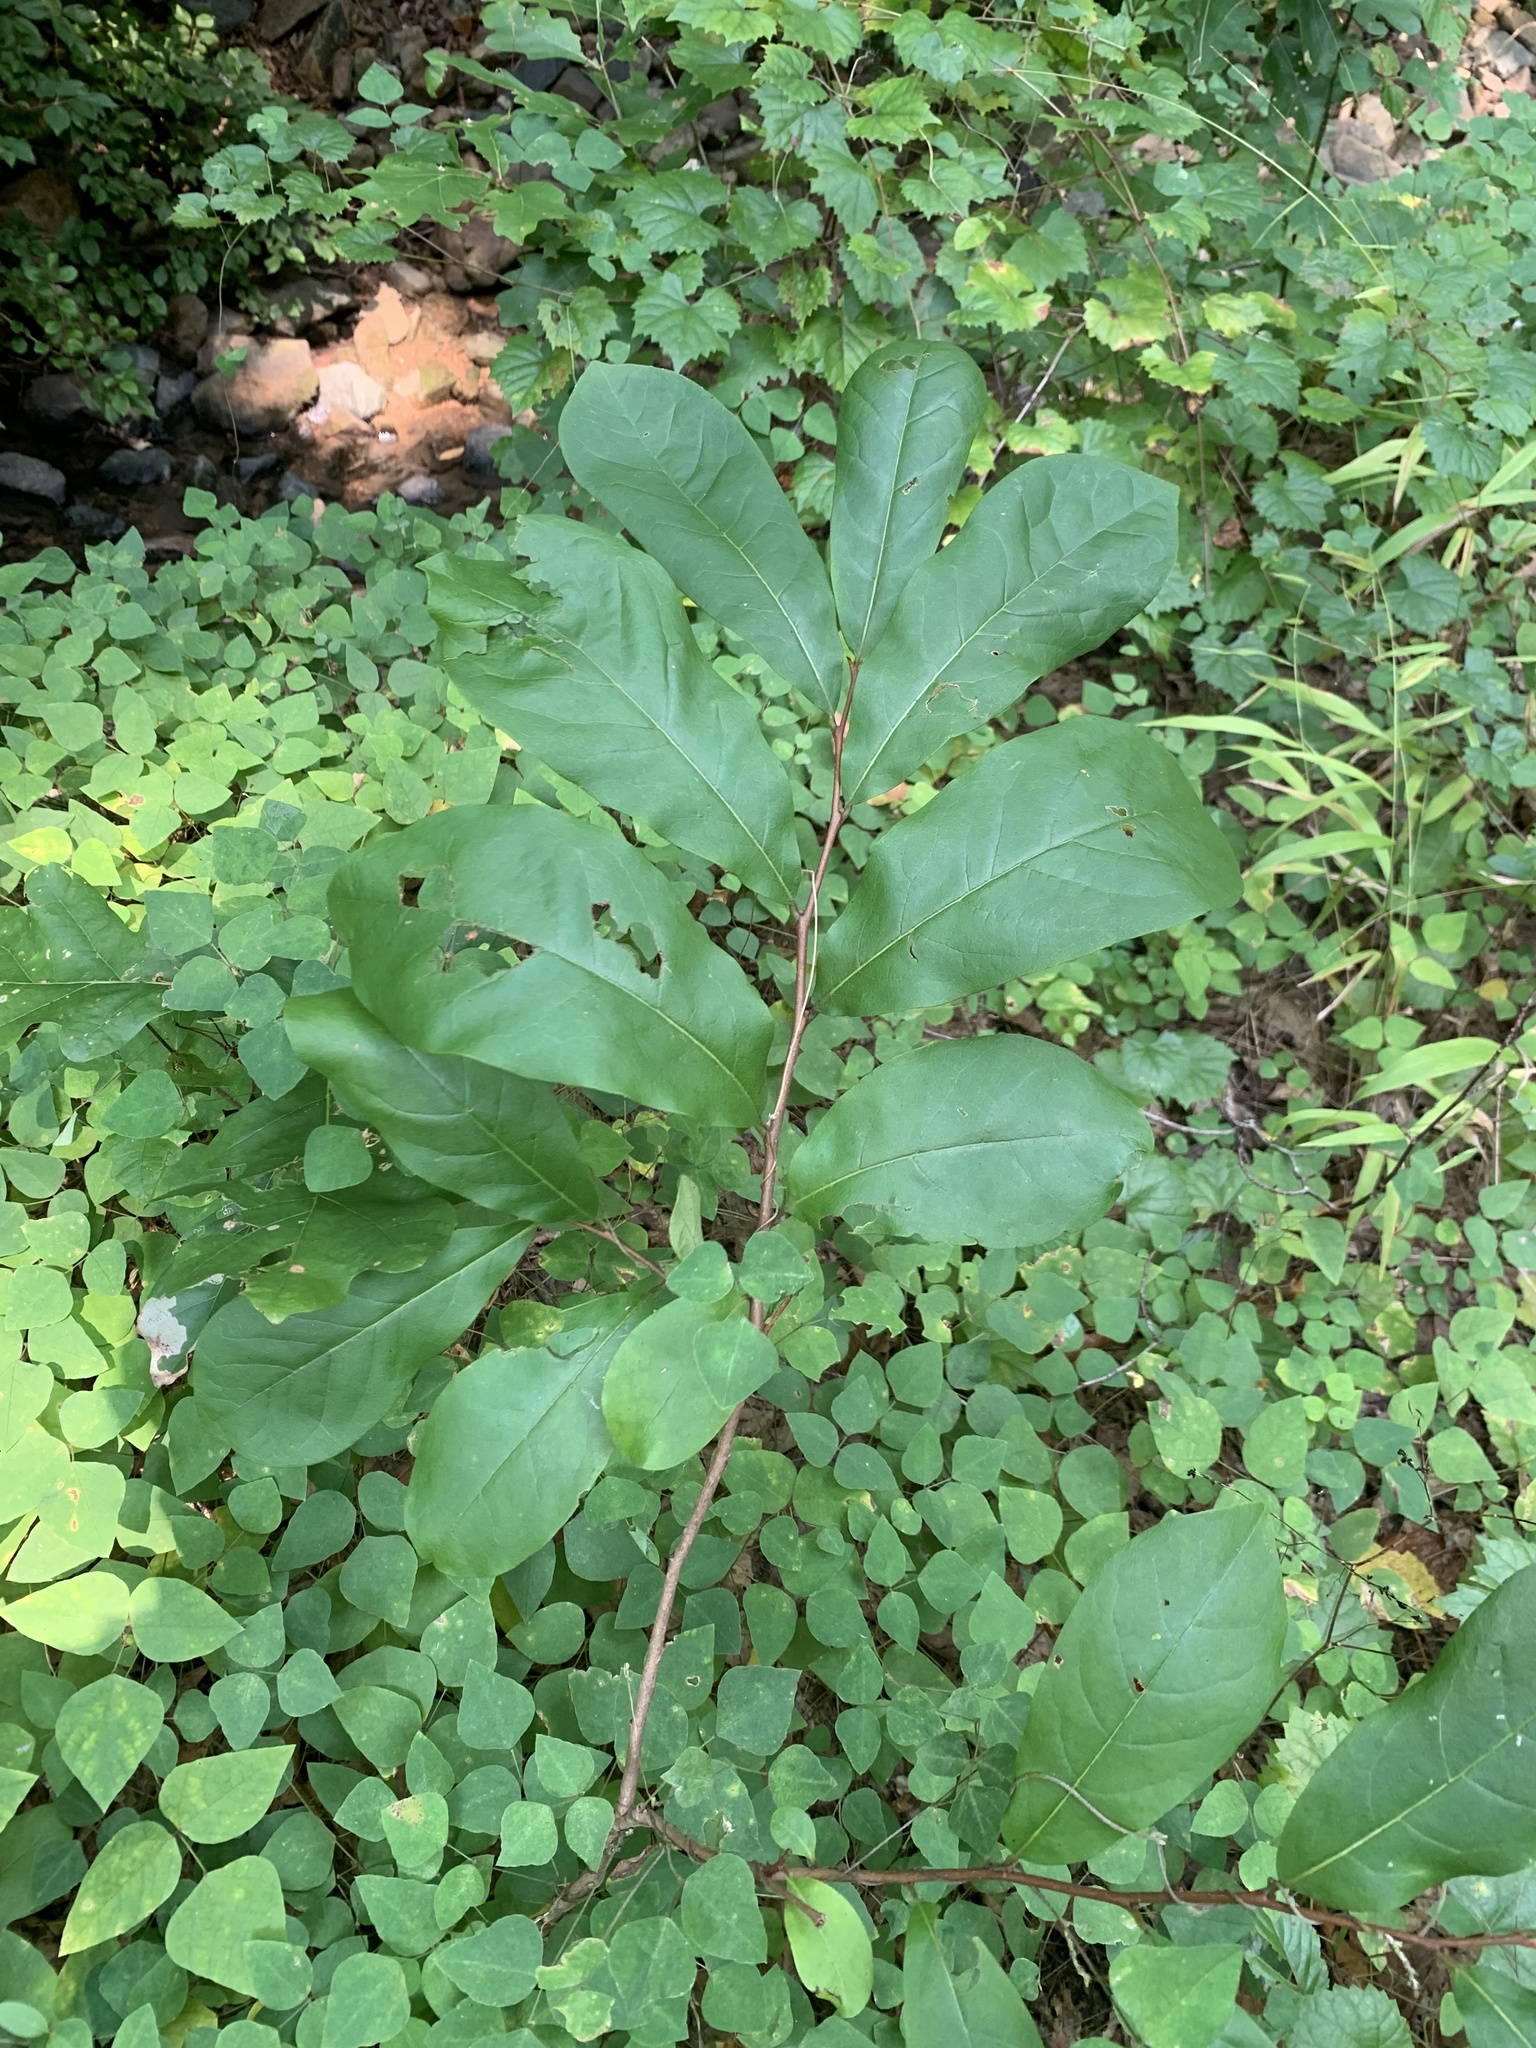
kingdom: Plantae
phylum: Tracheophyta
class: Magnoliopsida
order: Magnoliales
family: Annonaceae
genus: Asimina
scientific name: Asimina parviflora
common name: Dwarf pawpaw
